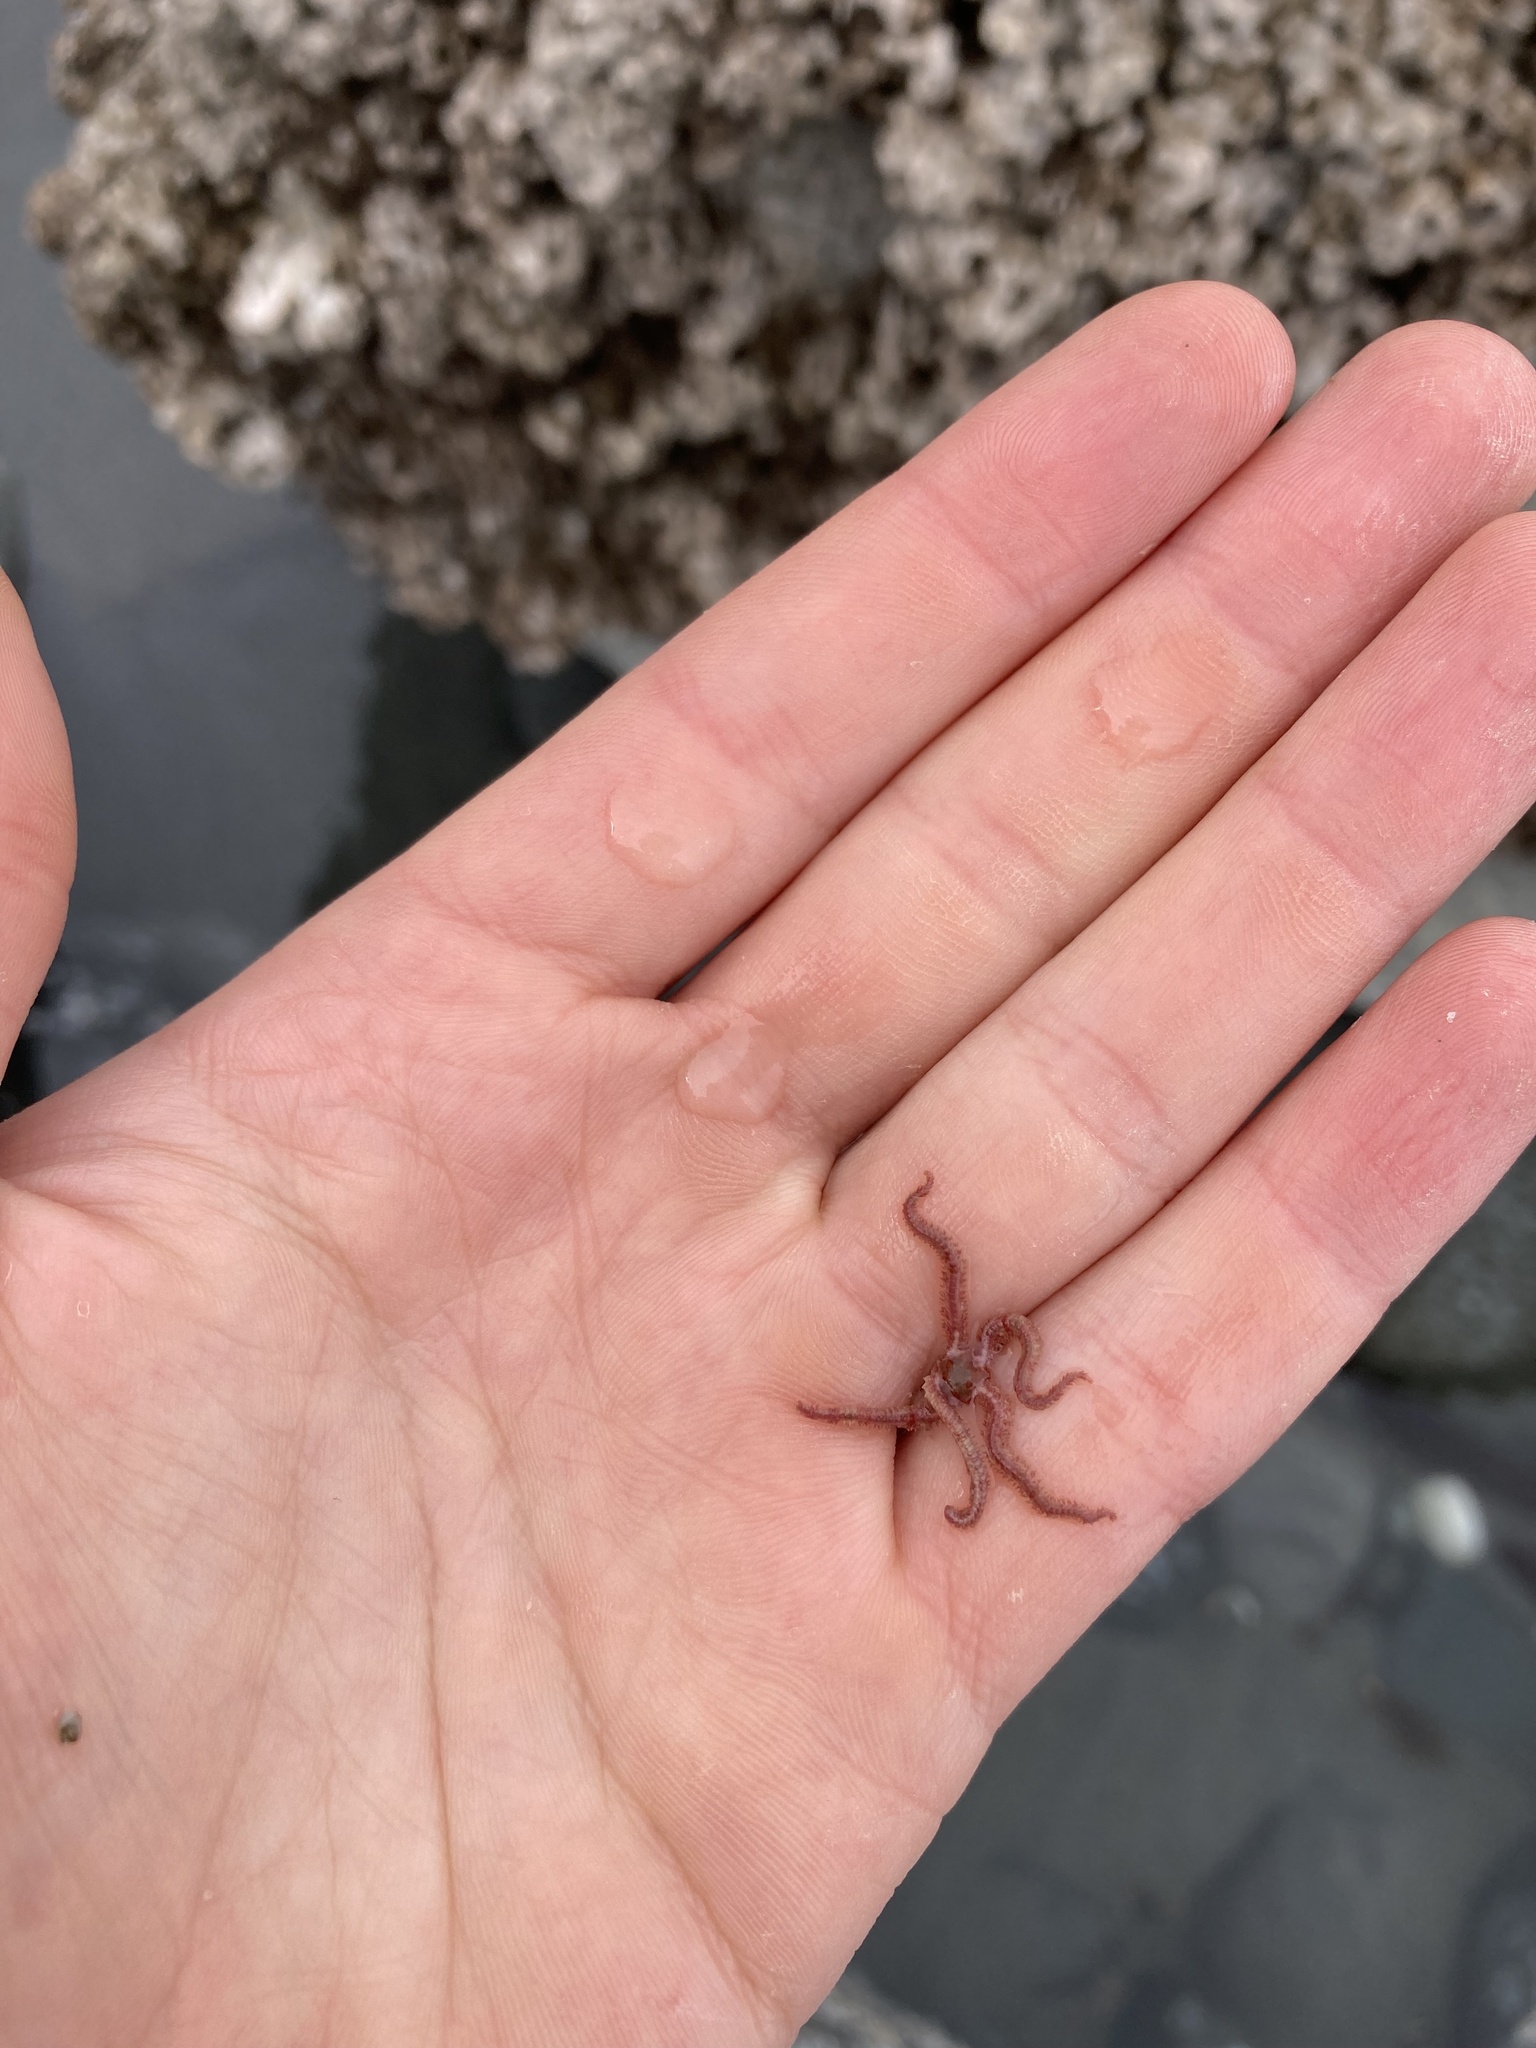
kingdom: Animalia
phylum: Echinodermata
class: Ophiuroidea
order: Amphilepidida
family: Ophiopholidae
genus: Ophiopholis
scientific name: Ophiopholis aculeata
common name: Crevice brittlestar
